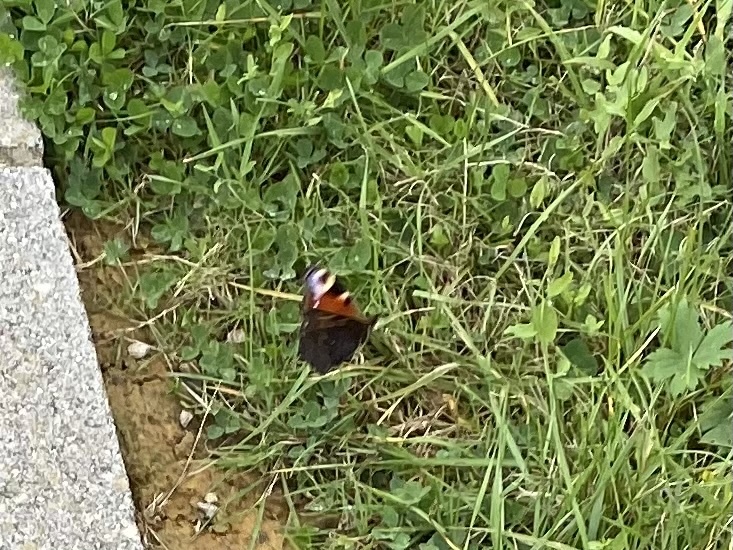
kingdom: Animalia
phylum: Arthropoda
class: Insecta
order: Lepidoptera
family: Nymphalidae
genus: Aglais
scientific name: Aglais io
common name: Peacock
